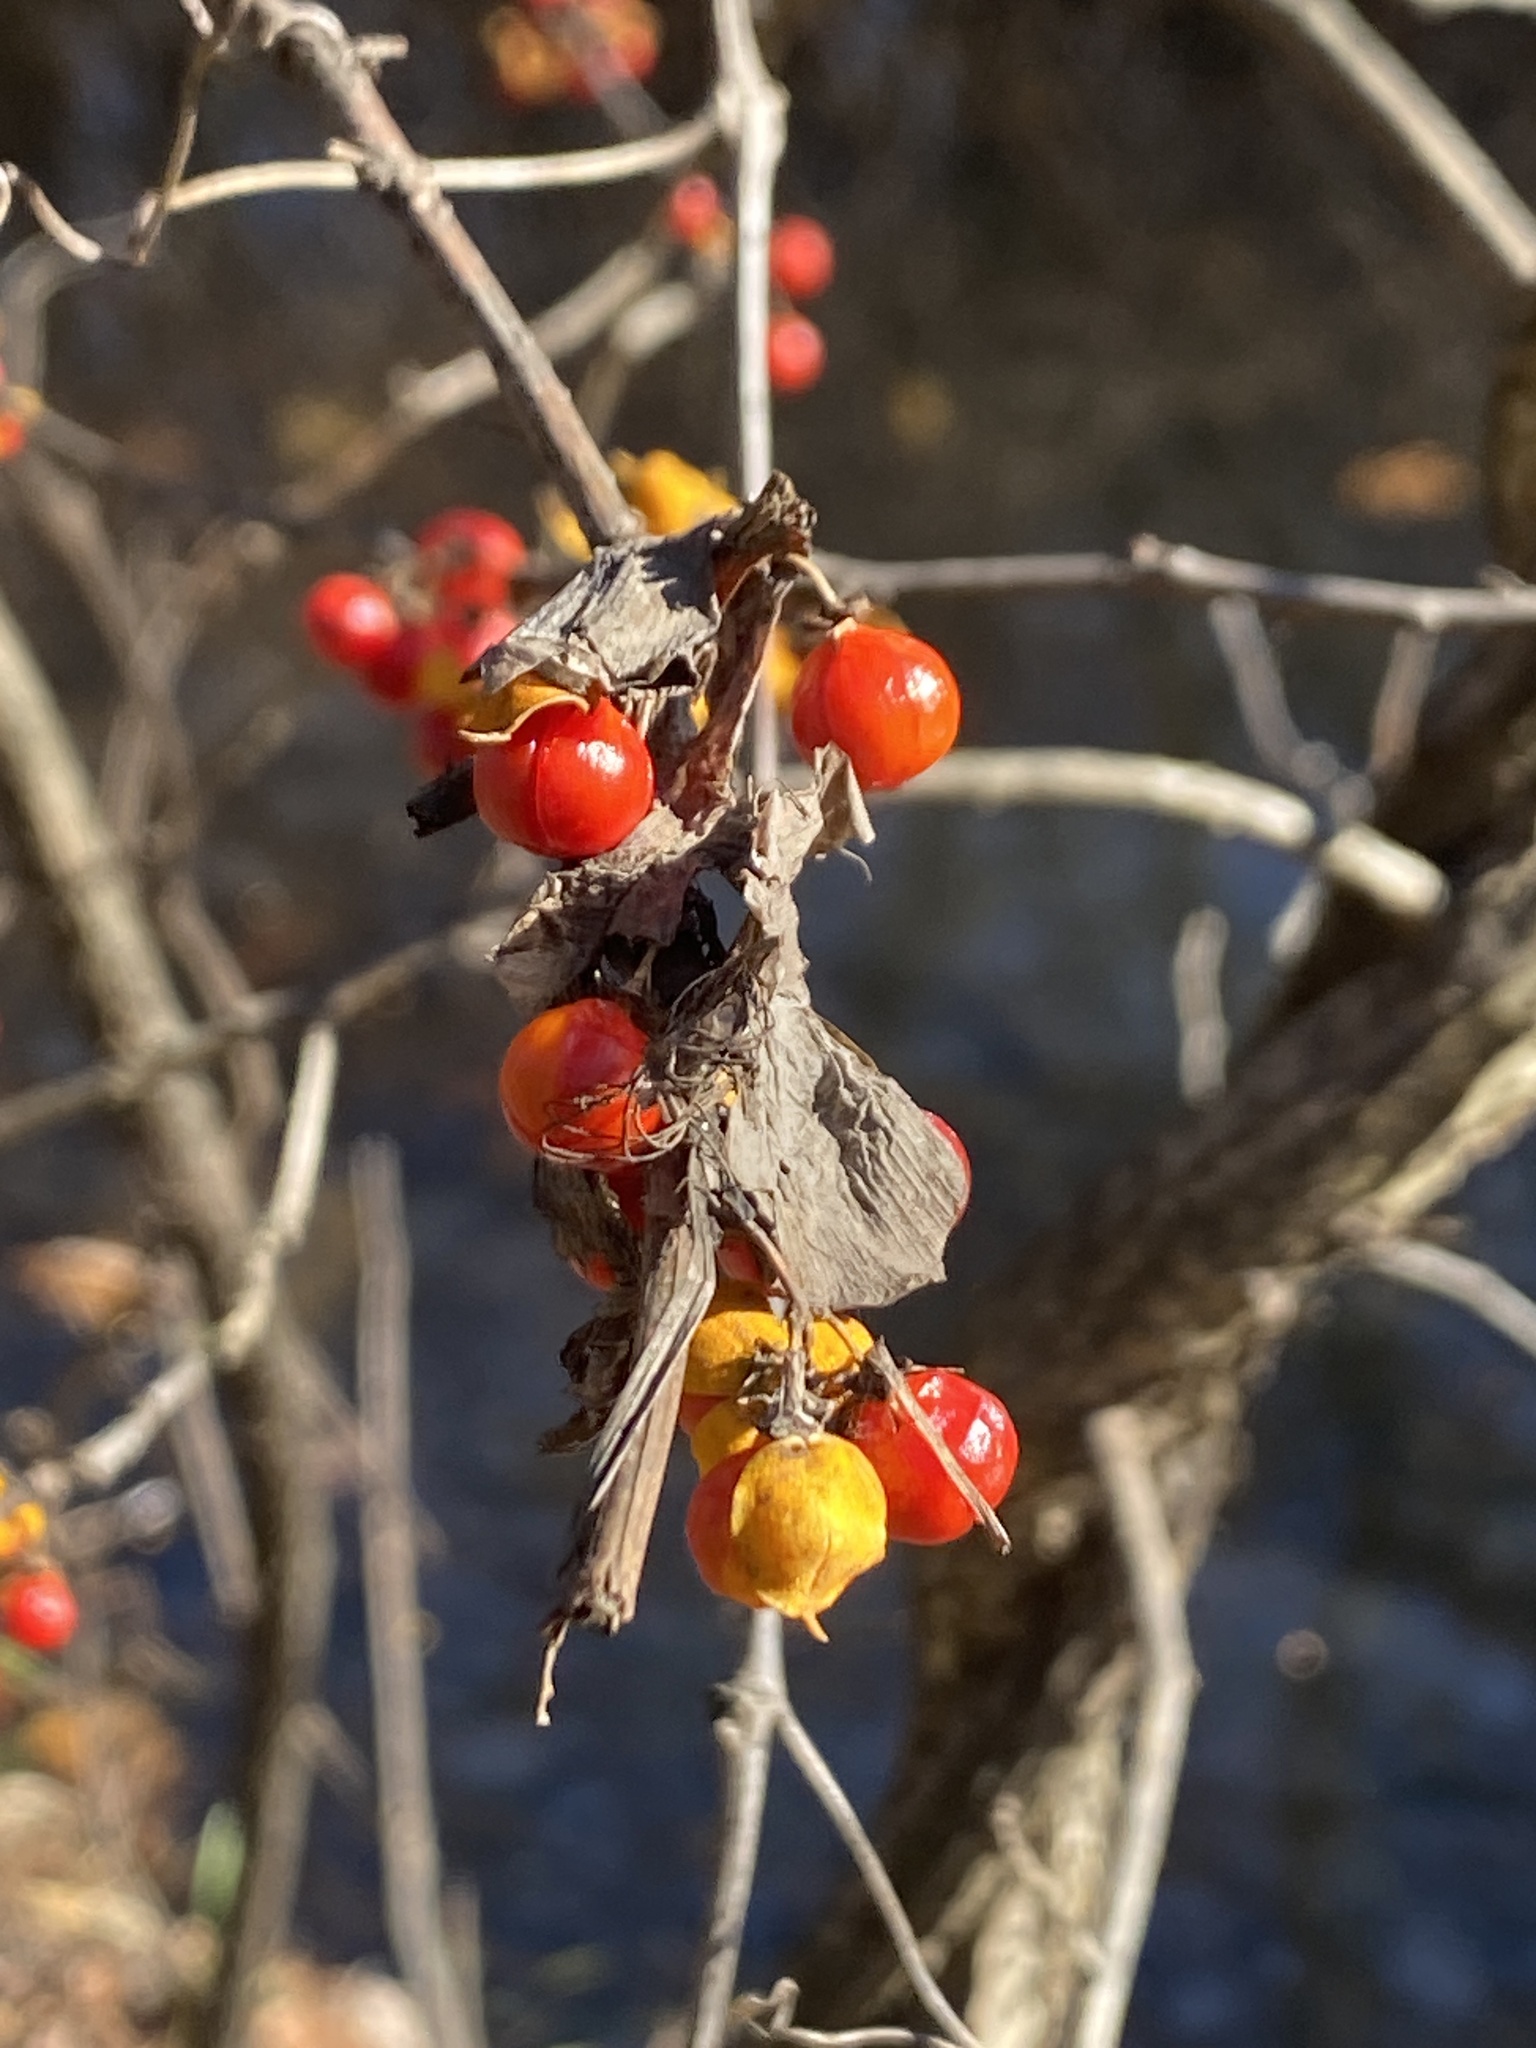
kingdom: Plantae
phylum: Tracheophyta
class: Magnoliopsida
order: Celastrales
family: Celastraceae
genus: Celastrus
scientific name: Celastrus orbiculatus
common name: Oriental bittersweet
